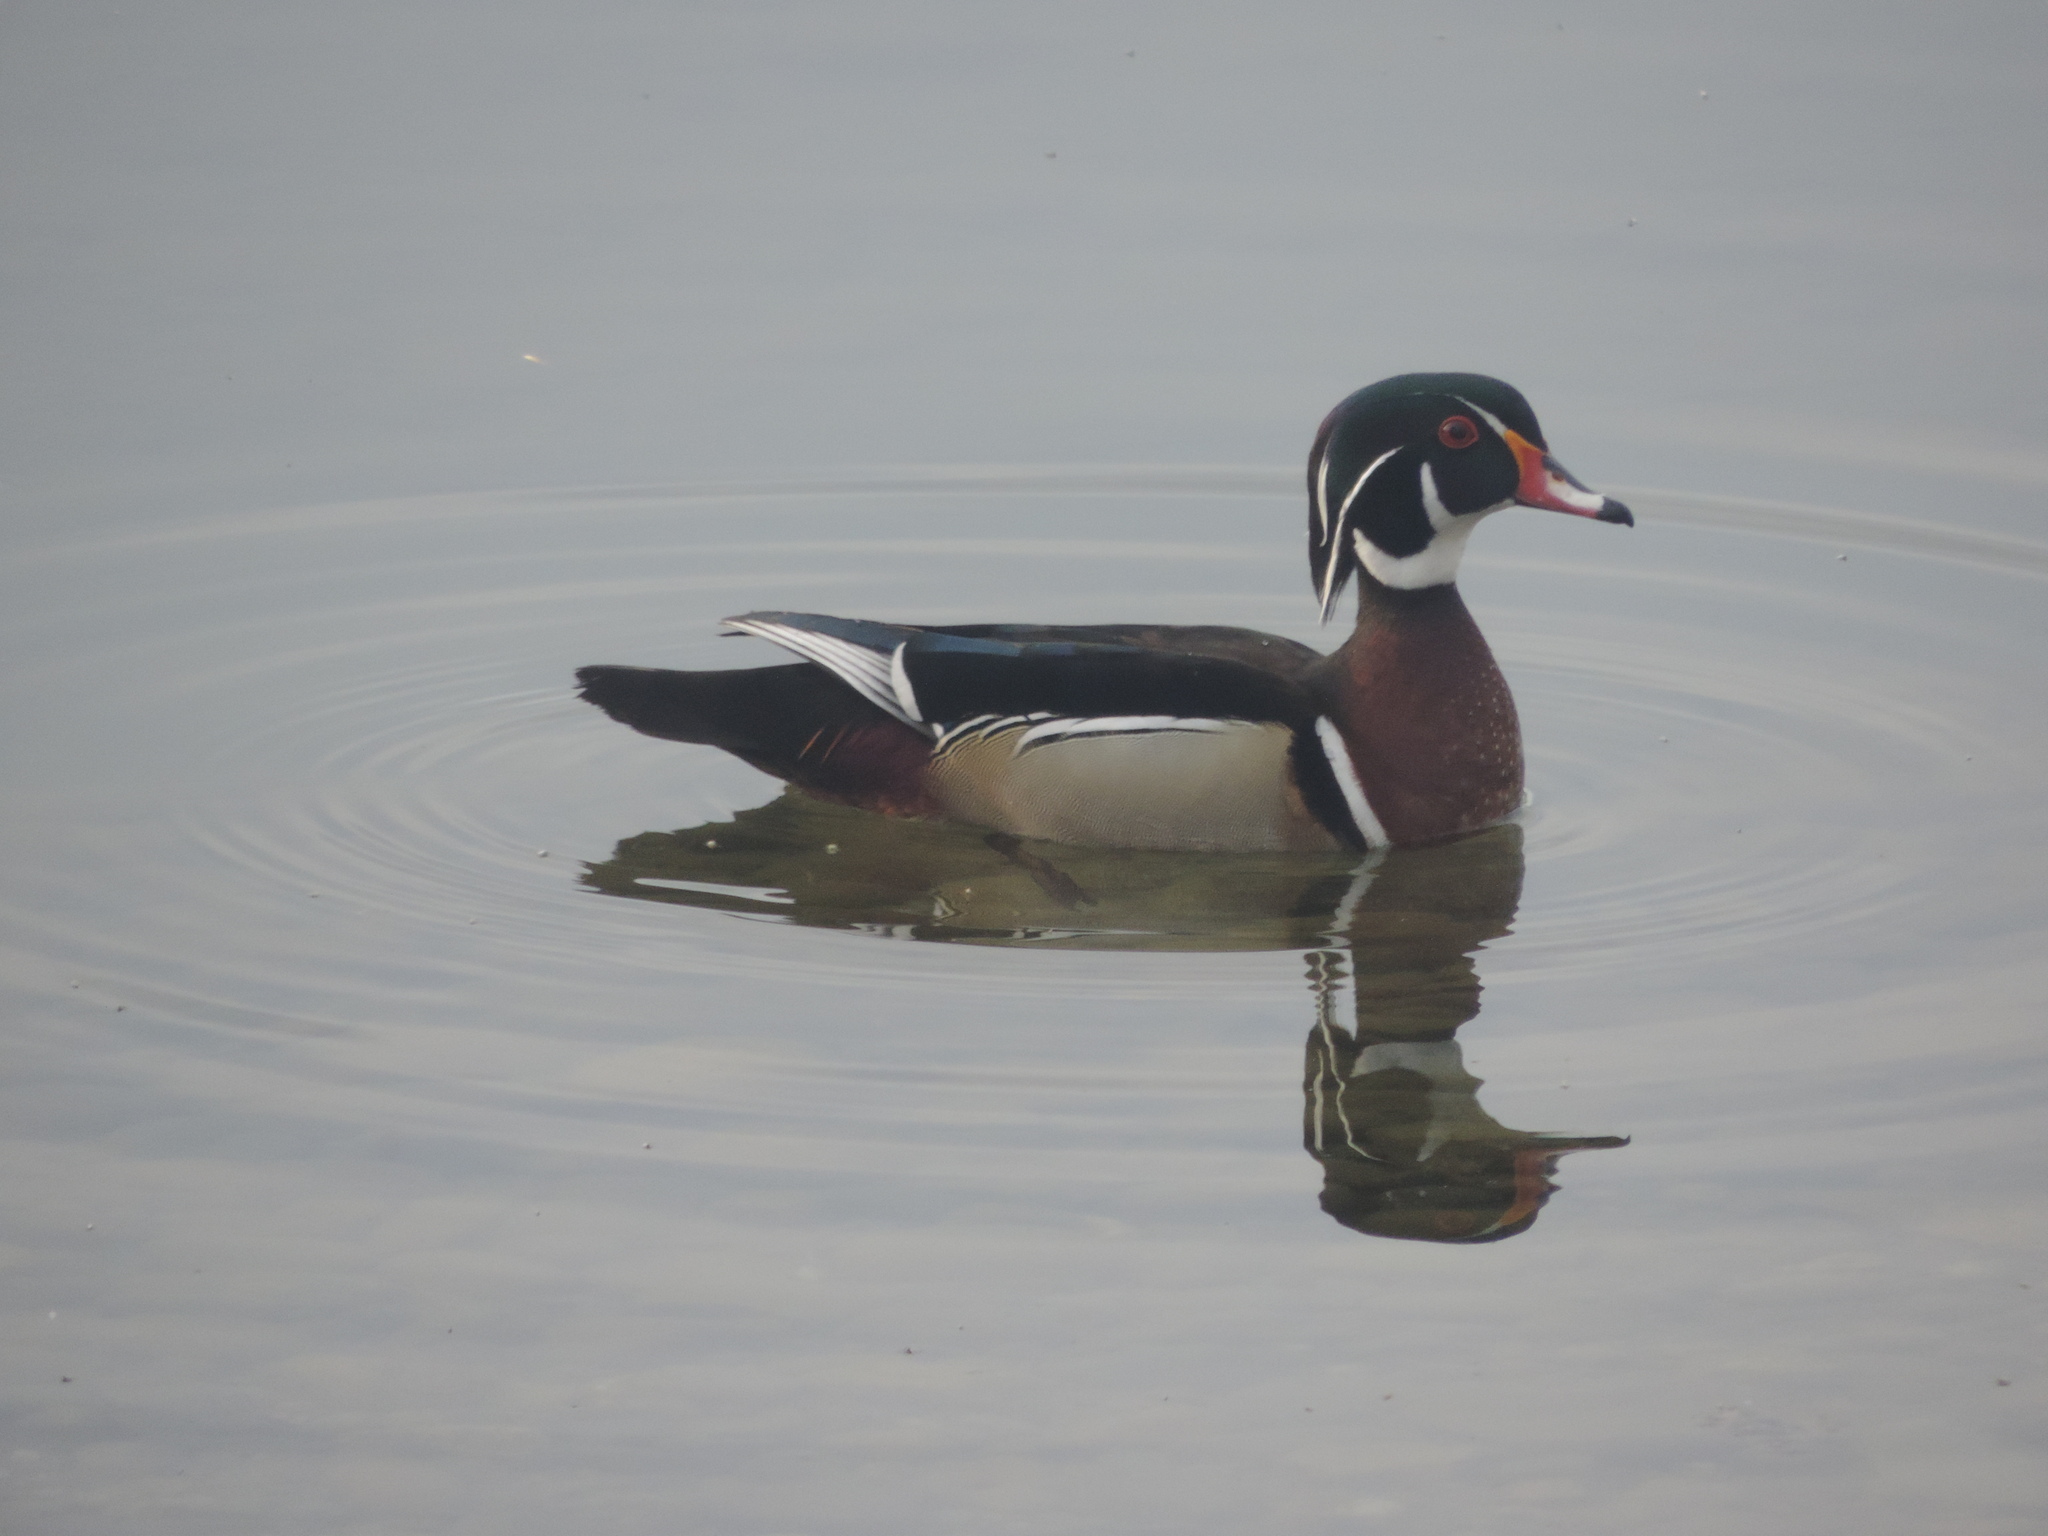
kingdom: Animalia
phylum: Chordata
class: Aves
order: Anseriformes
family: Anatidae
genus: Aix
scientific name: Aix sponsa
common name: Wood duck
